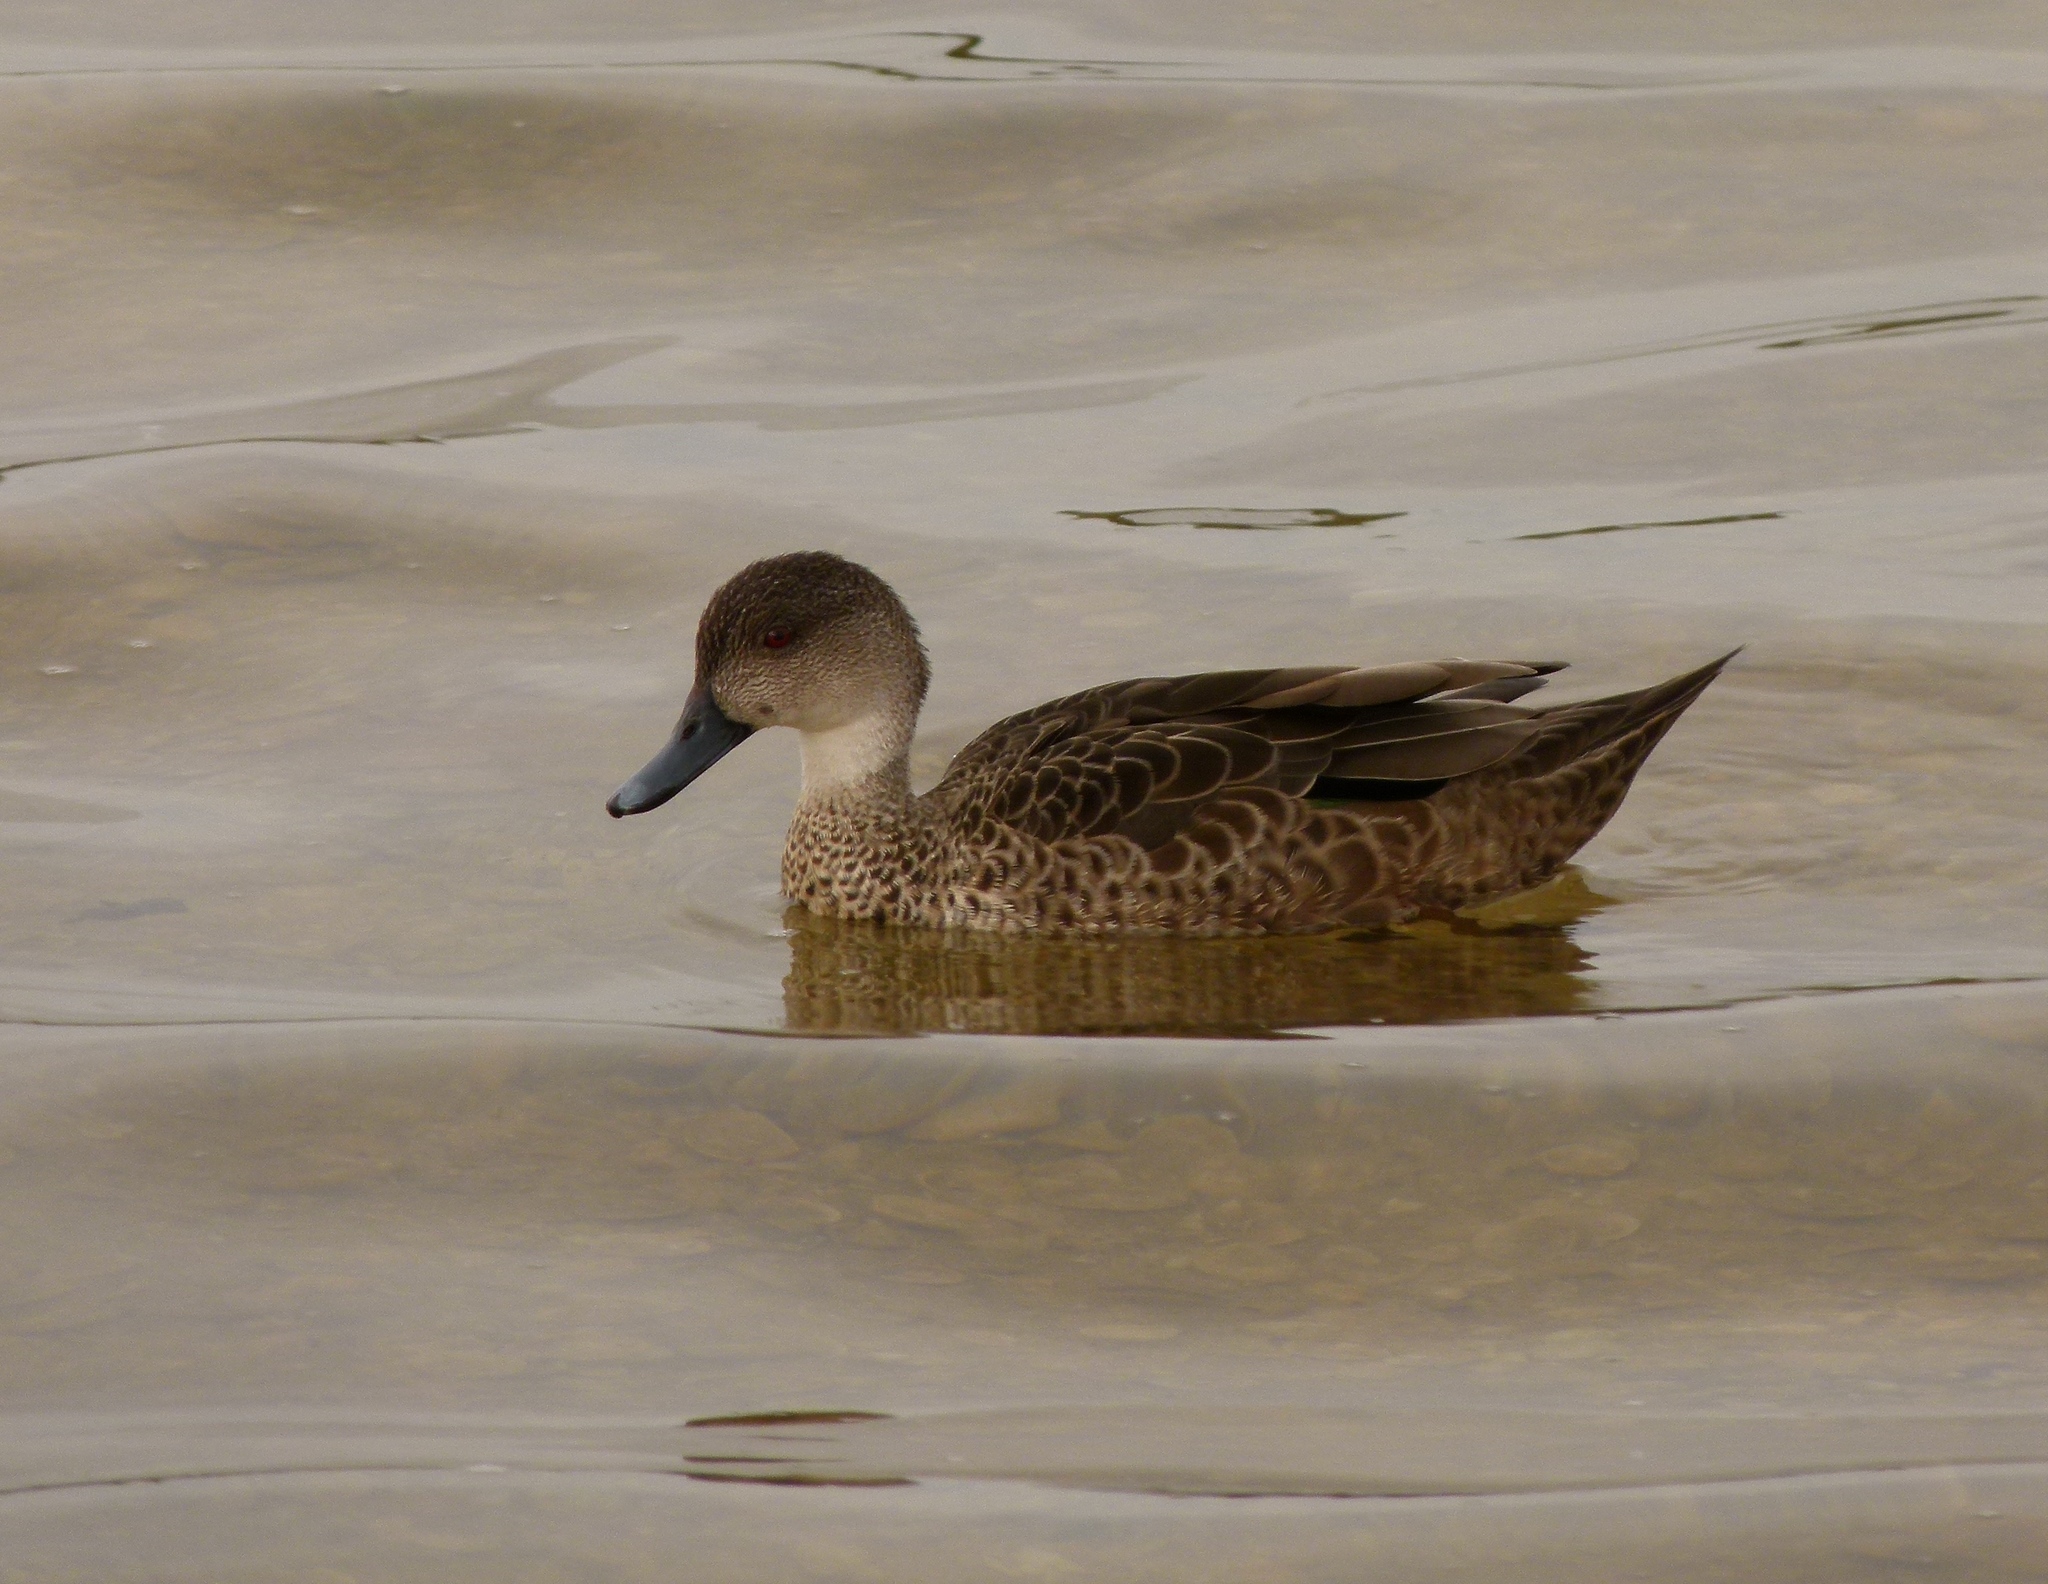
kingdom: Animalia
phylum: Chordata
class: Aves
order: Anseriformes
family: Anatidae
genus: Anas
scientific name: Anas gracilis
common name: Grey teal
